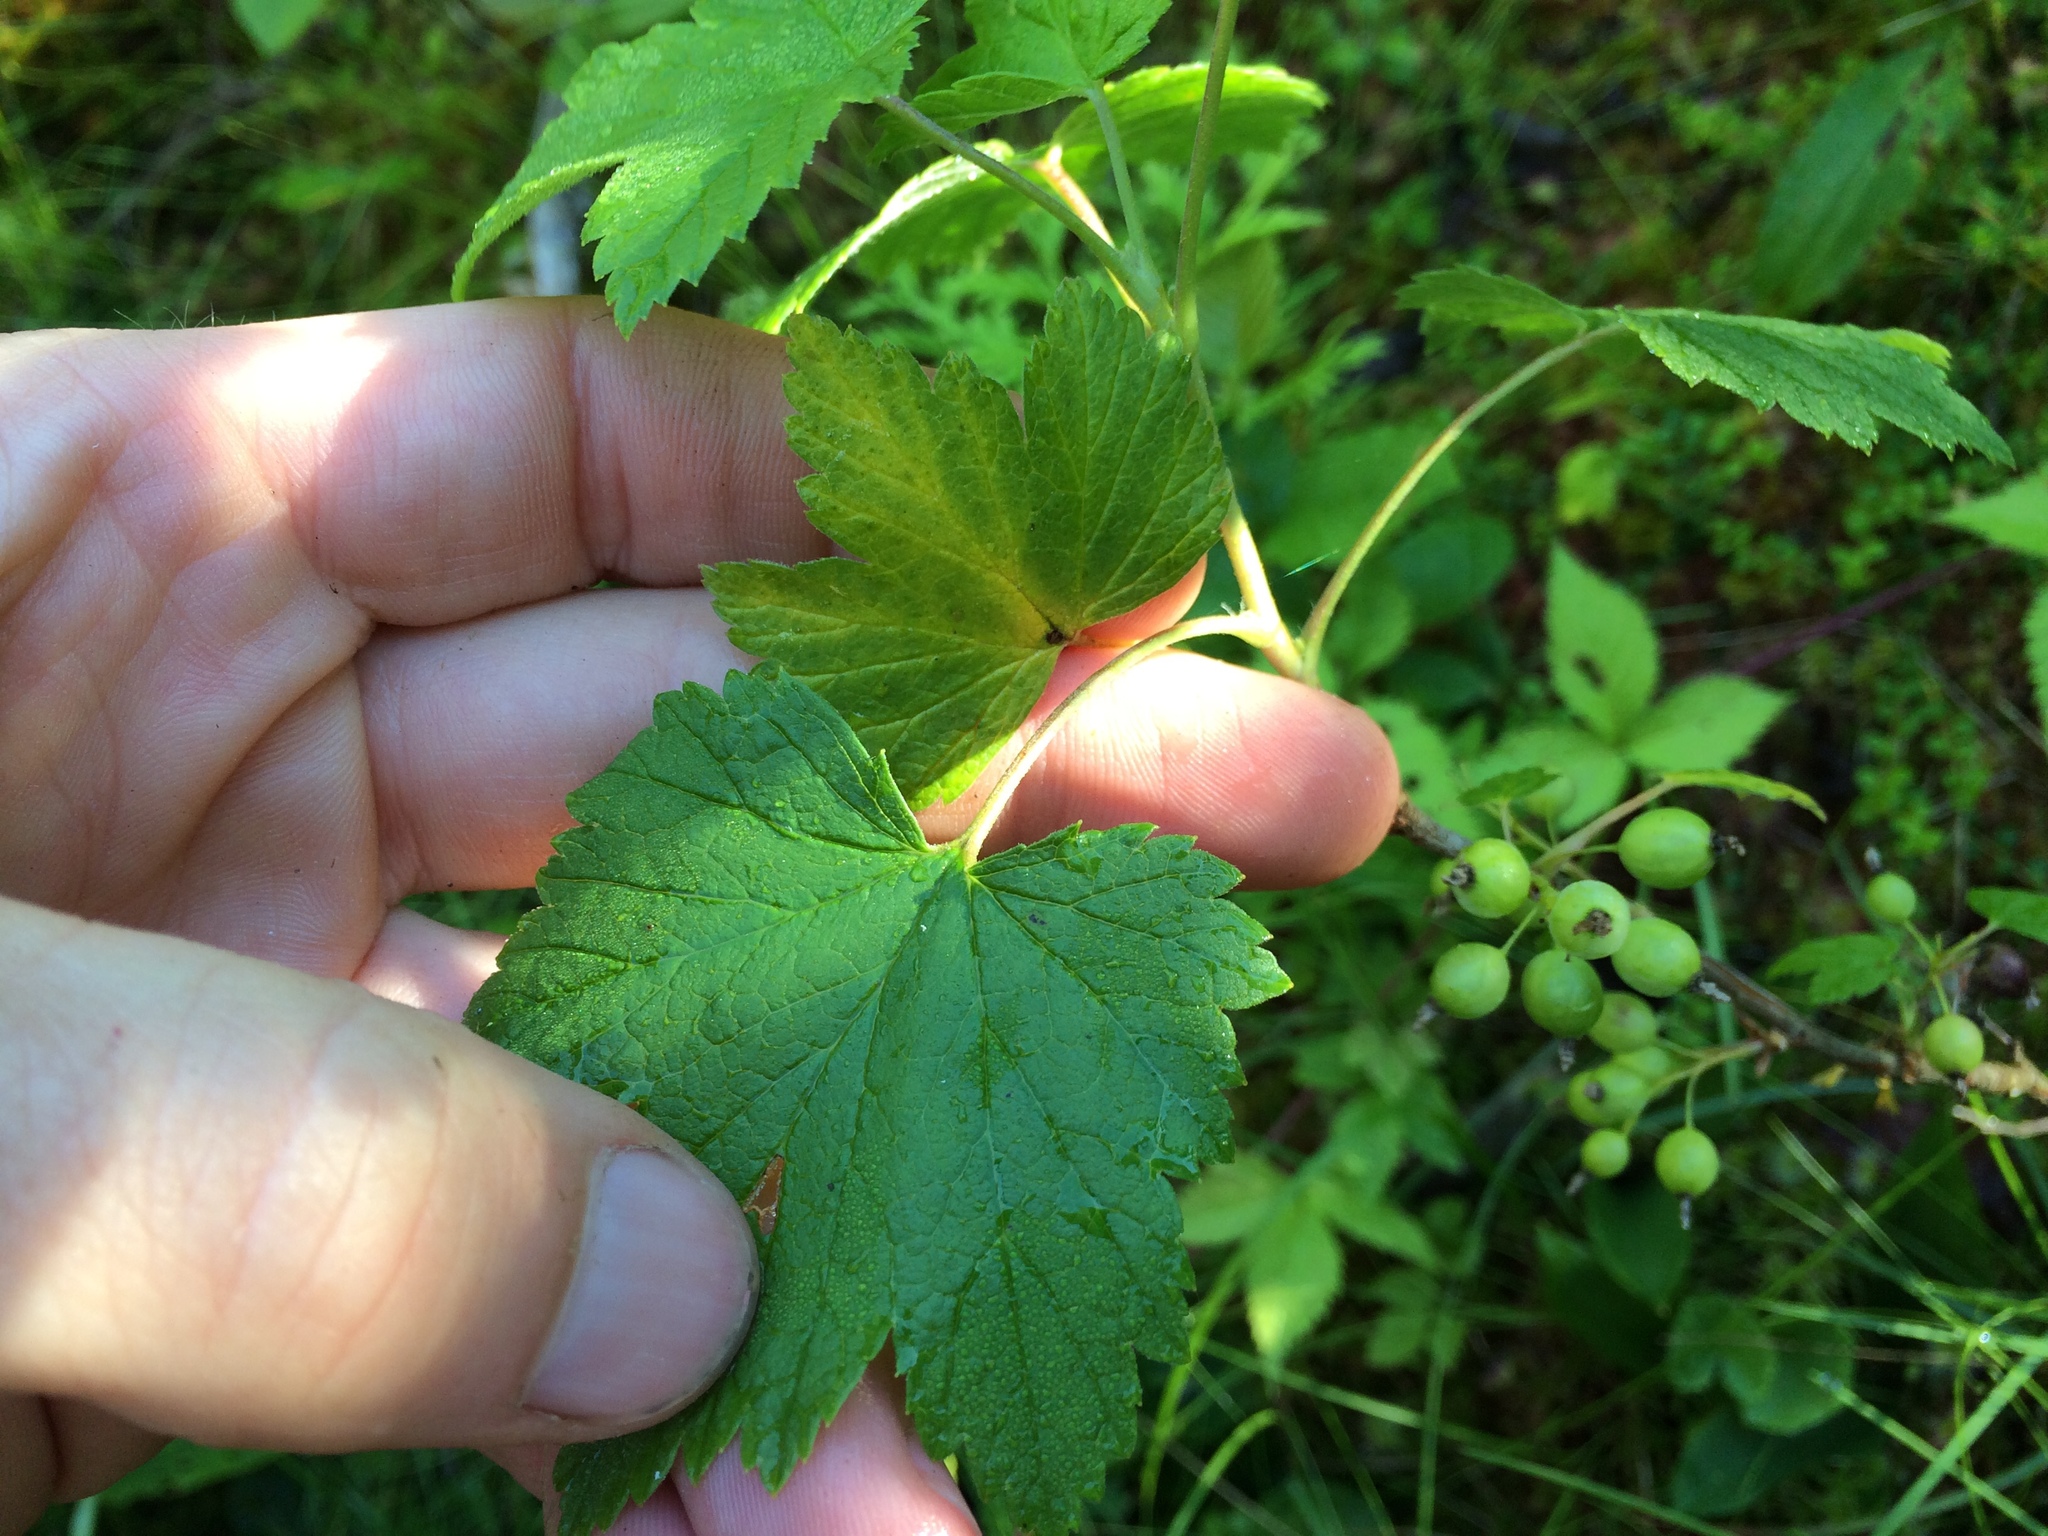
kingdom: Plantae
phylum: Tracheophyta
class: Magnoliopsida
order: Saxifragales
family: Grossulariaceae
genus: Ribes
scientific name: Ribes hudsonianum
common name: Northern black currant
